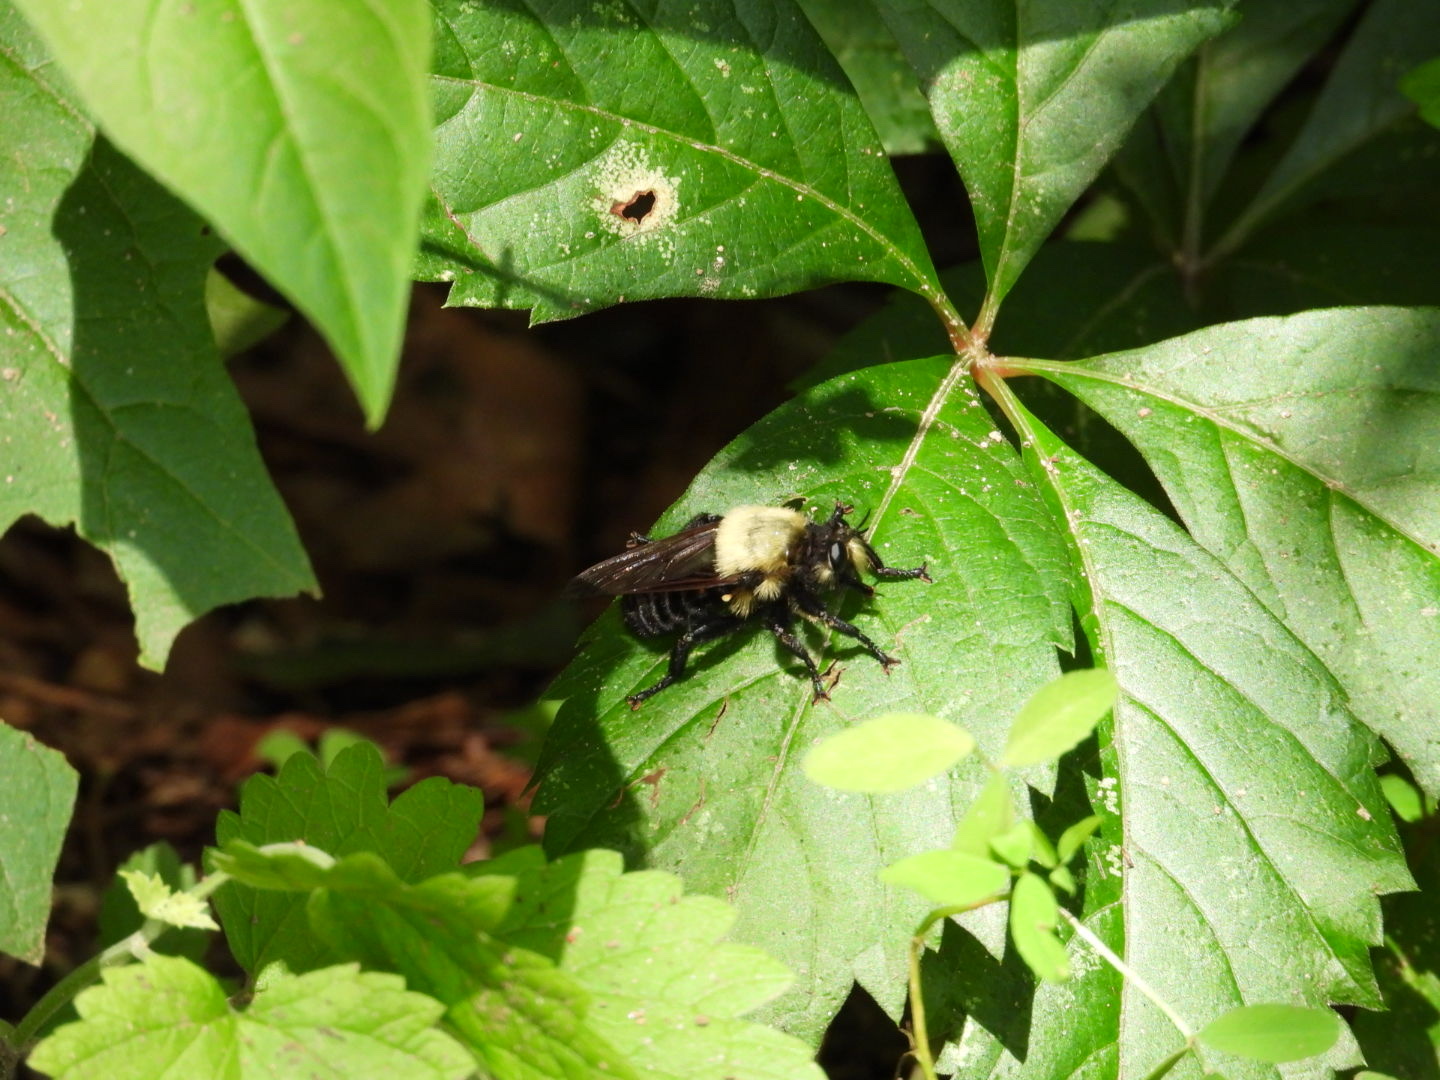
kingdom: Animalia
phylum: Arthropoda
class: Insecta
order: Diptera
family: Asilidae
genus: Laphria
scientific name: Laphria grossa
